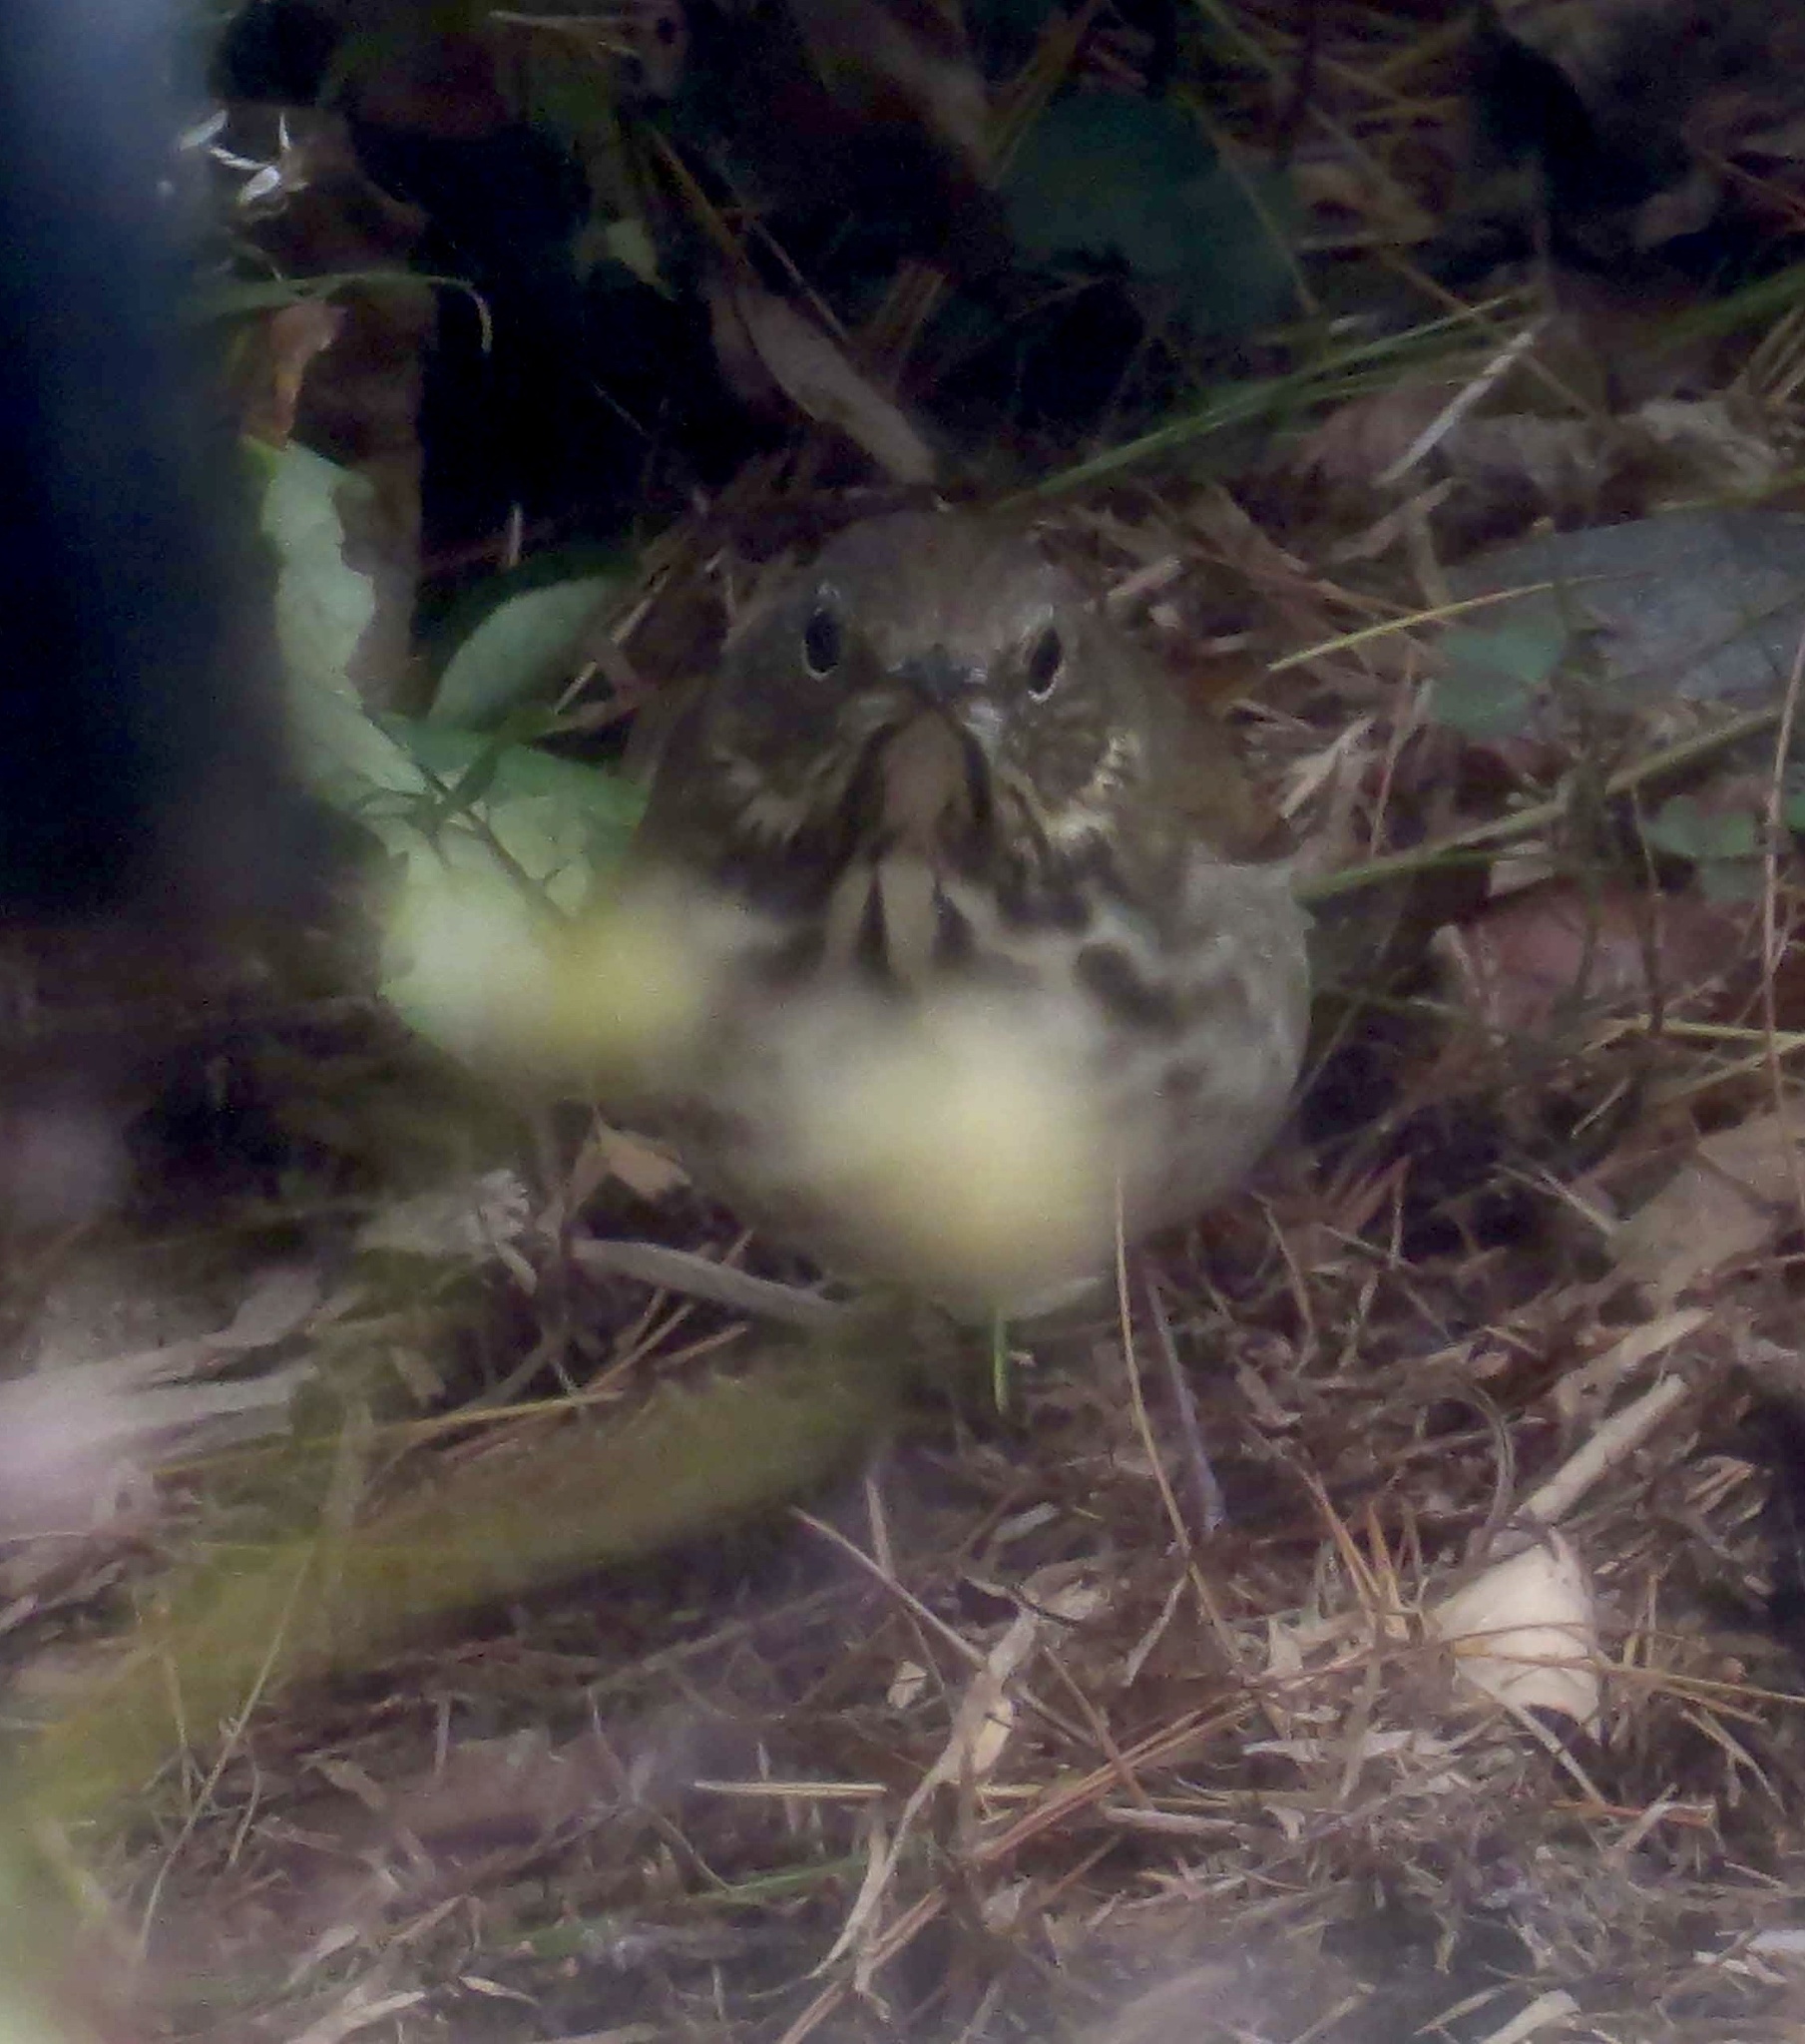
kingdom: Animalia
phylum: Chordata
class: Aves
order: Passeriformes
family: Turdidae
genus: Catharus
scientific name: Catharus guttatus
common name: Hermit thrush
